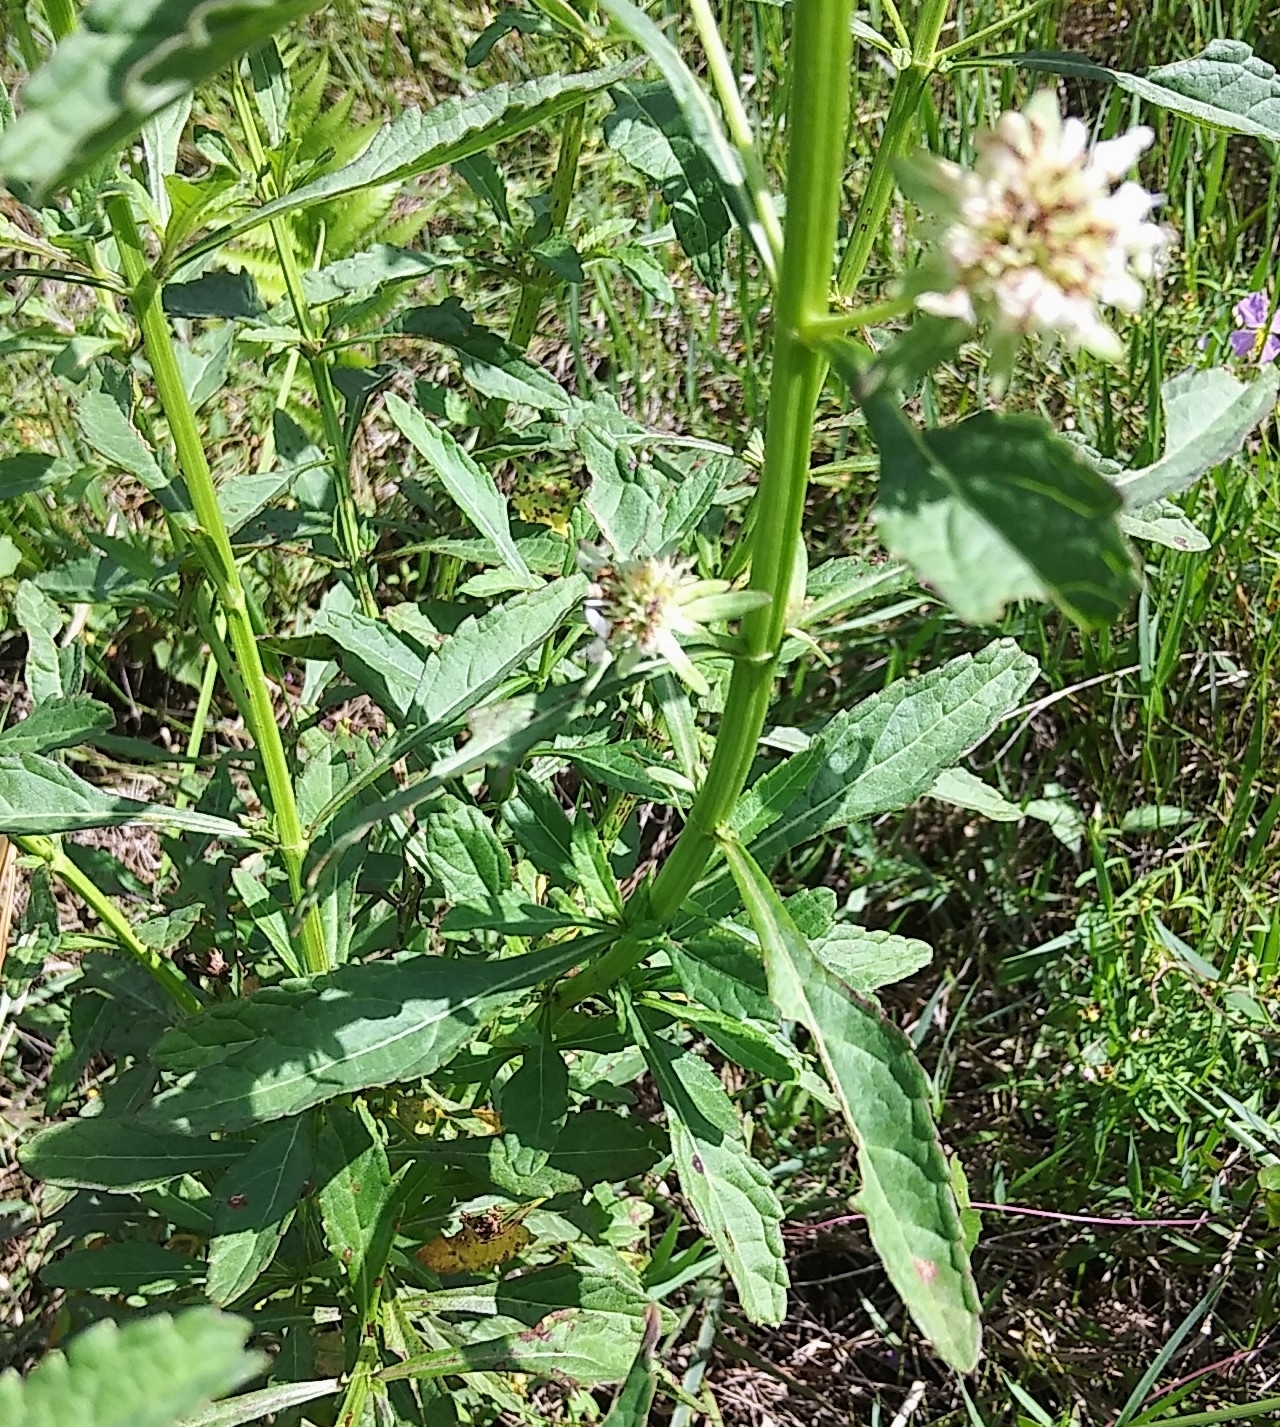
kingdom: Plantae
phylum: Tracheophyta
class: Magnoliopsida
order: Lamiales
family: Lamiaceae
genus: Hyptis
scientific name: Hyptis alata
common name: Cluster bush-mint
